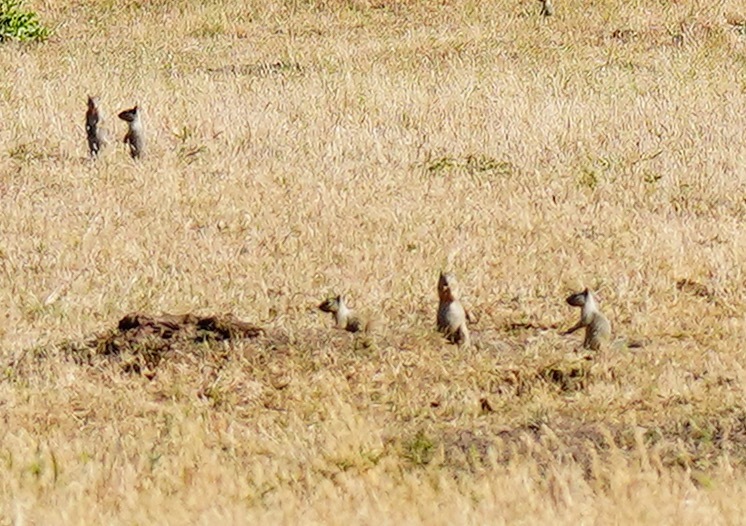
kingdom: Animalia
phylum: Chordata
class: Mammalia
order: Rodentia
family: Sciuridae
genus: Otospermophilus
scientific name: Otospermophilus beecheyi
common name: California ground squirrel
